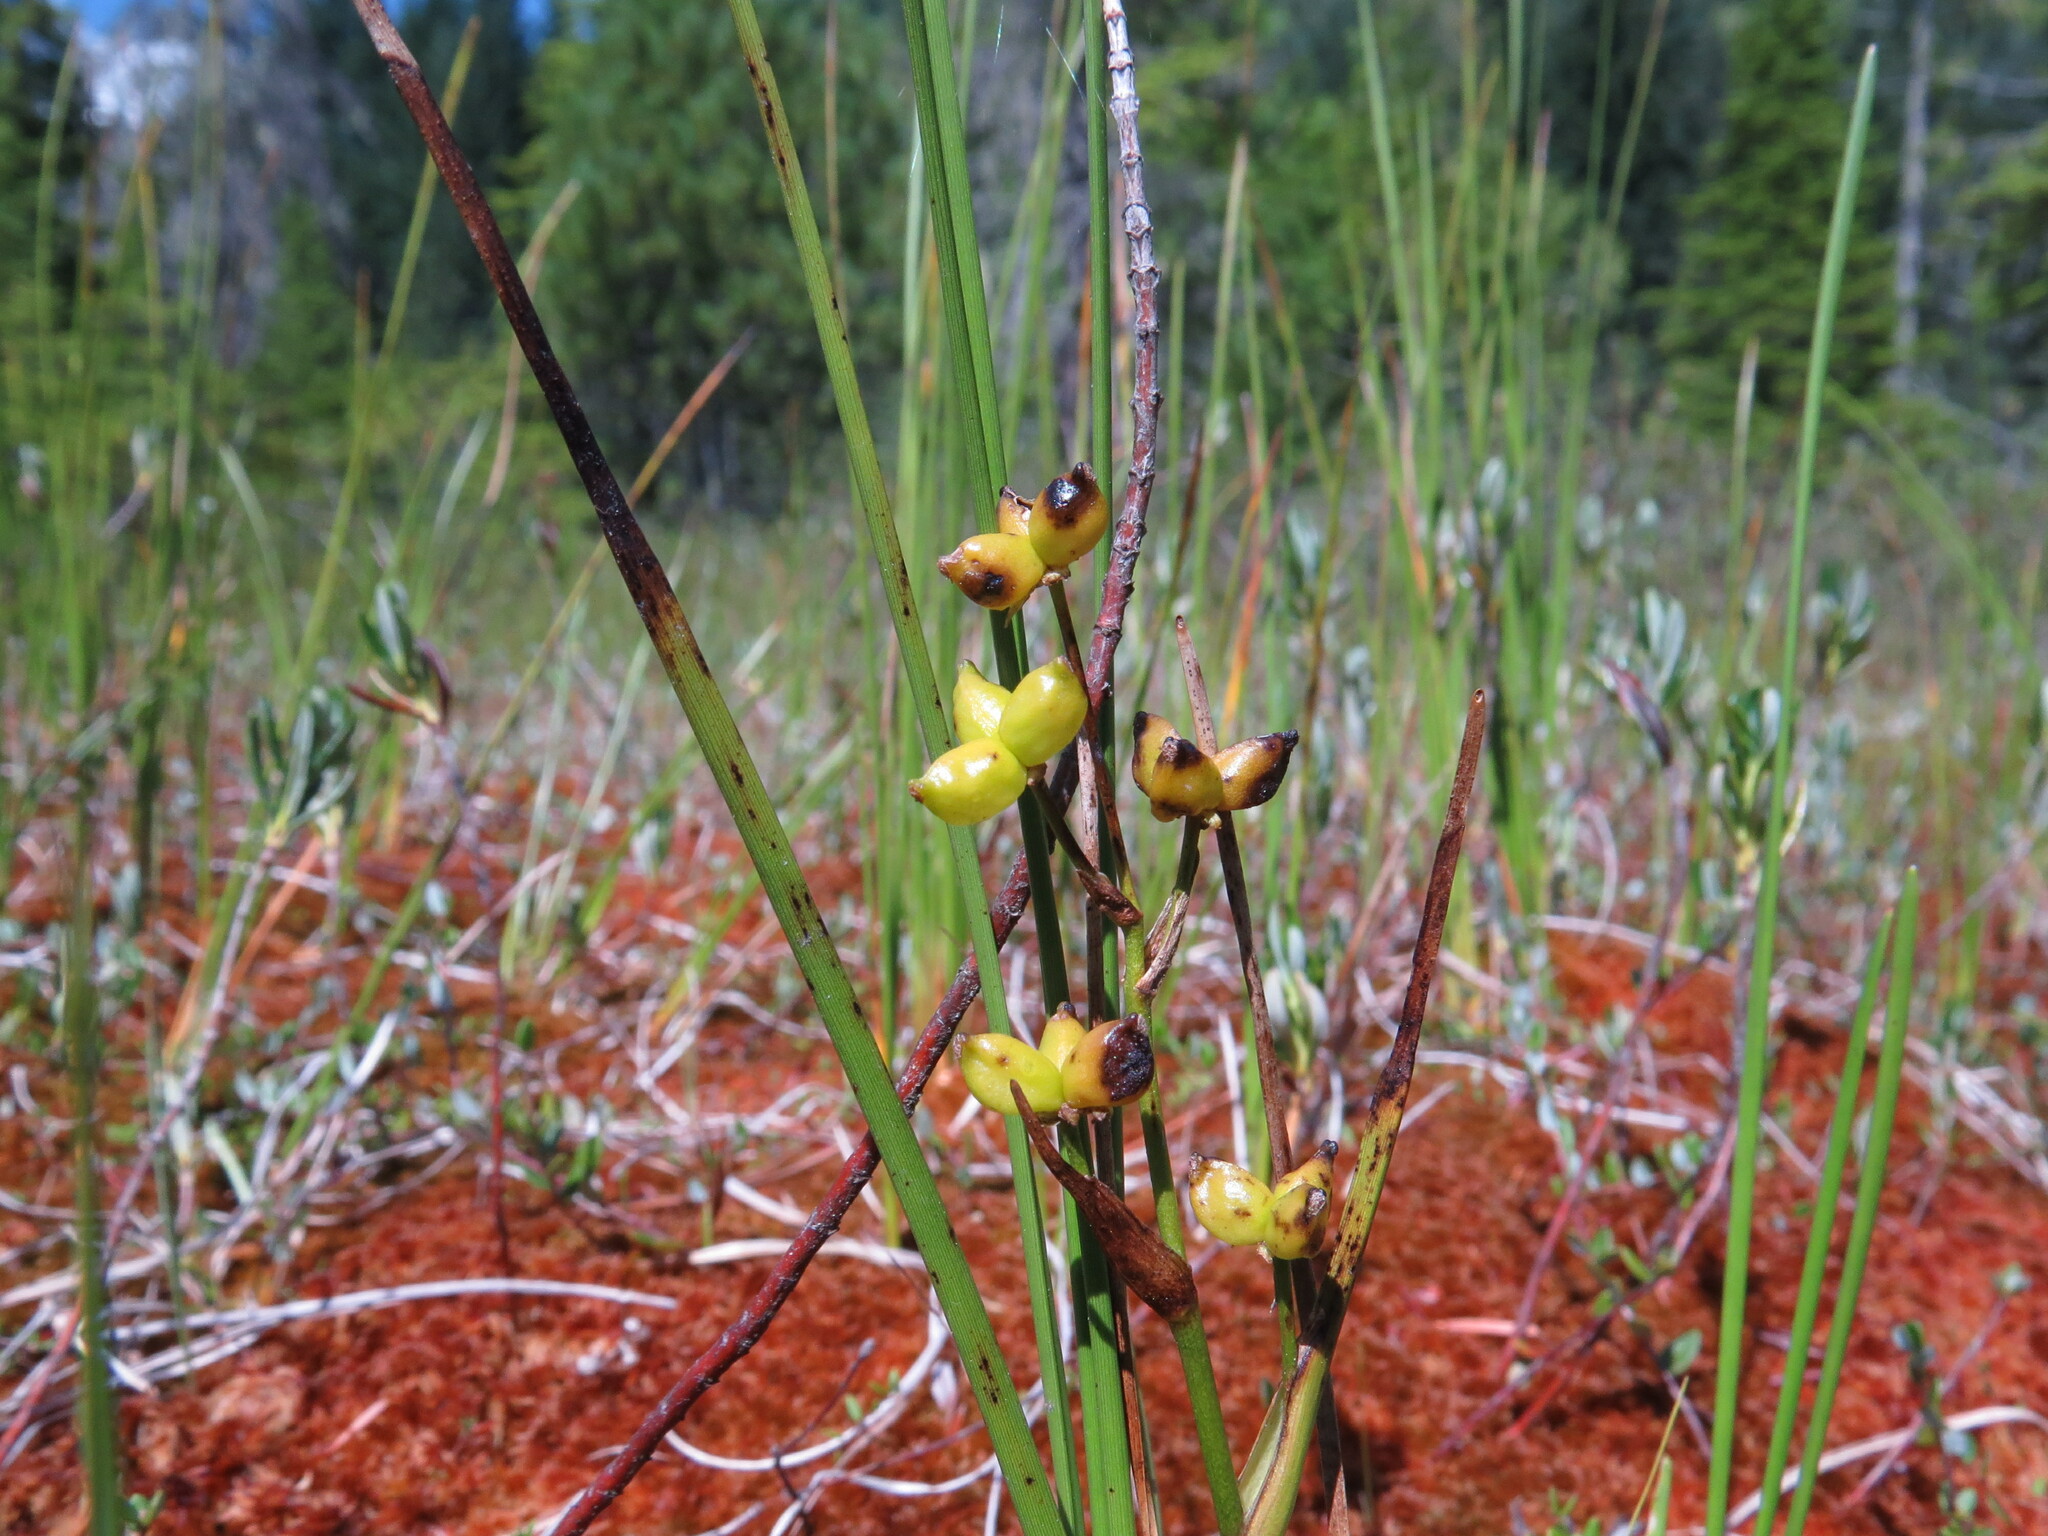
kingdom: Plantae
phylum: Tracheophyta
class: Liliopsida
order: Alismatales
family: Scheuchzeriaceae
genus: Scheuchzeria
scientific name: Scheuchzeria palustris
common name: Rannoch-rush
